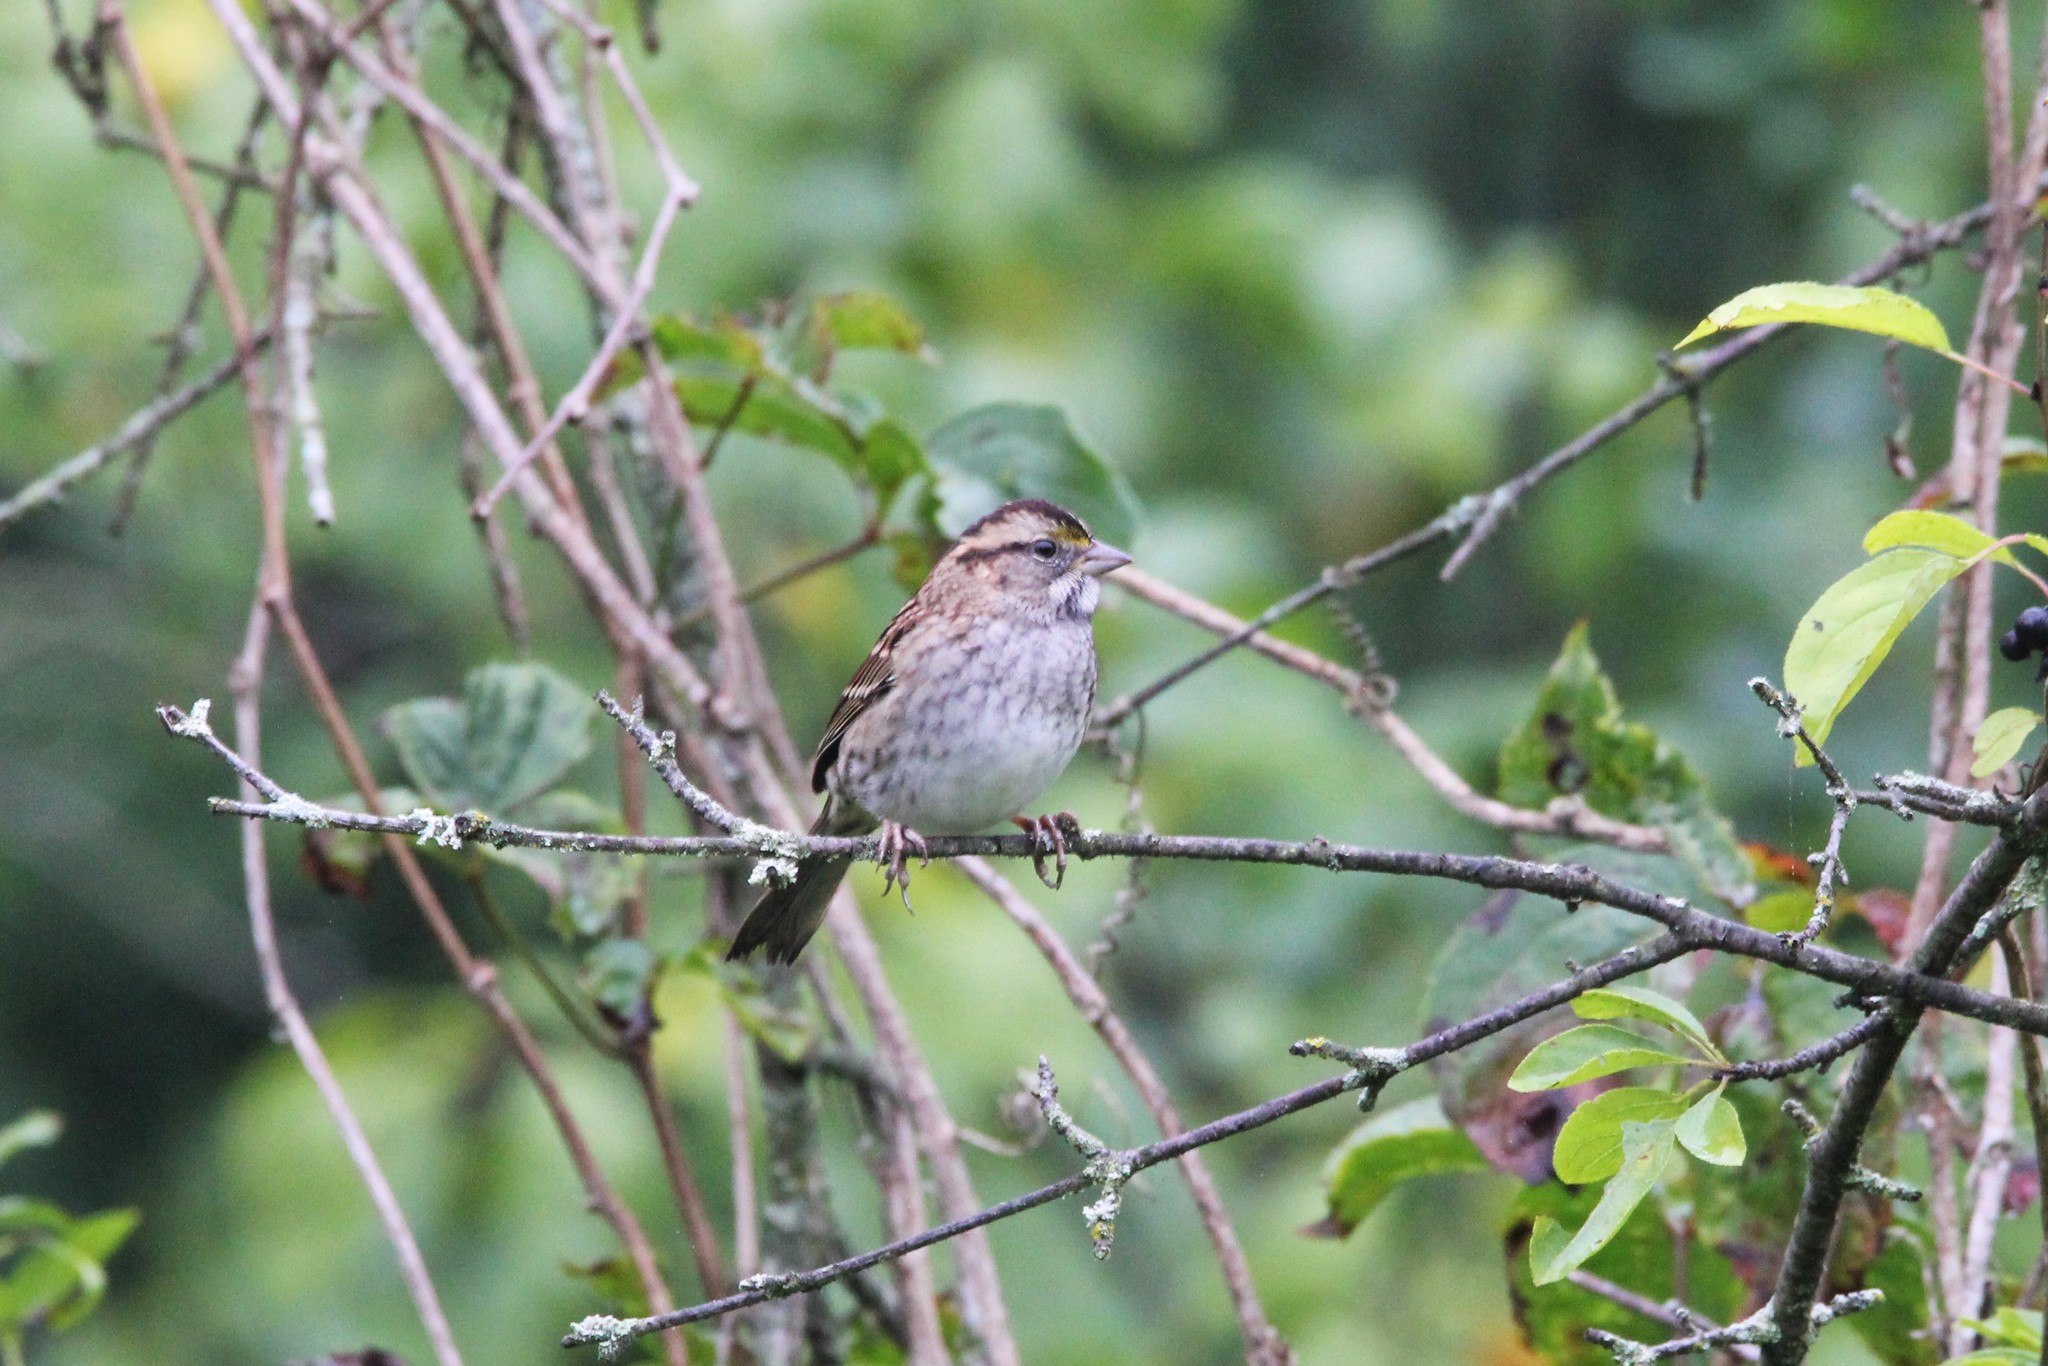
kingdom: Animalia
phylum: Chordata
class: Aves
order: Passeriformes
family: Passerellidae
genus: Zonotrichia
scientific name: Zonotrichia albicollis
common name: White-throated sparrow
